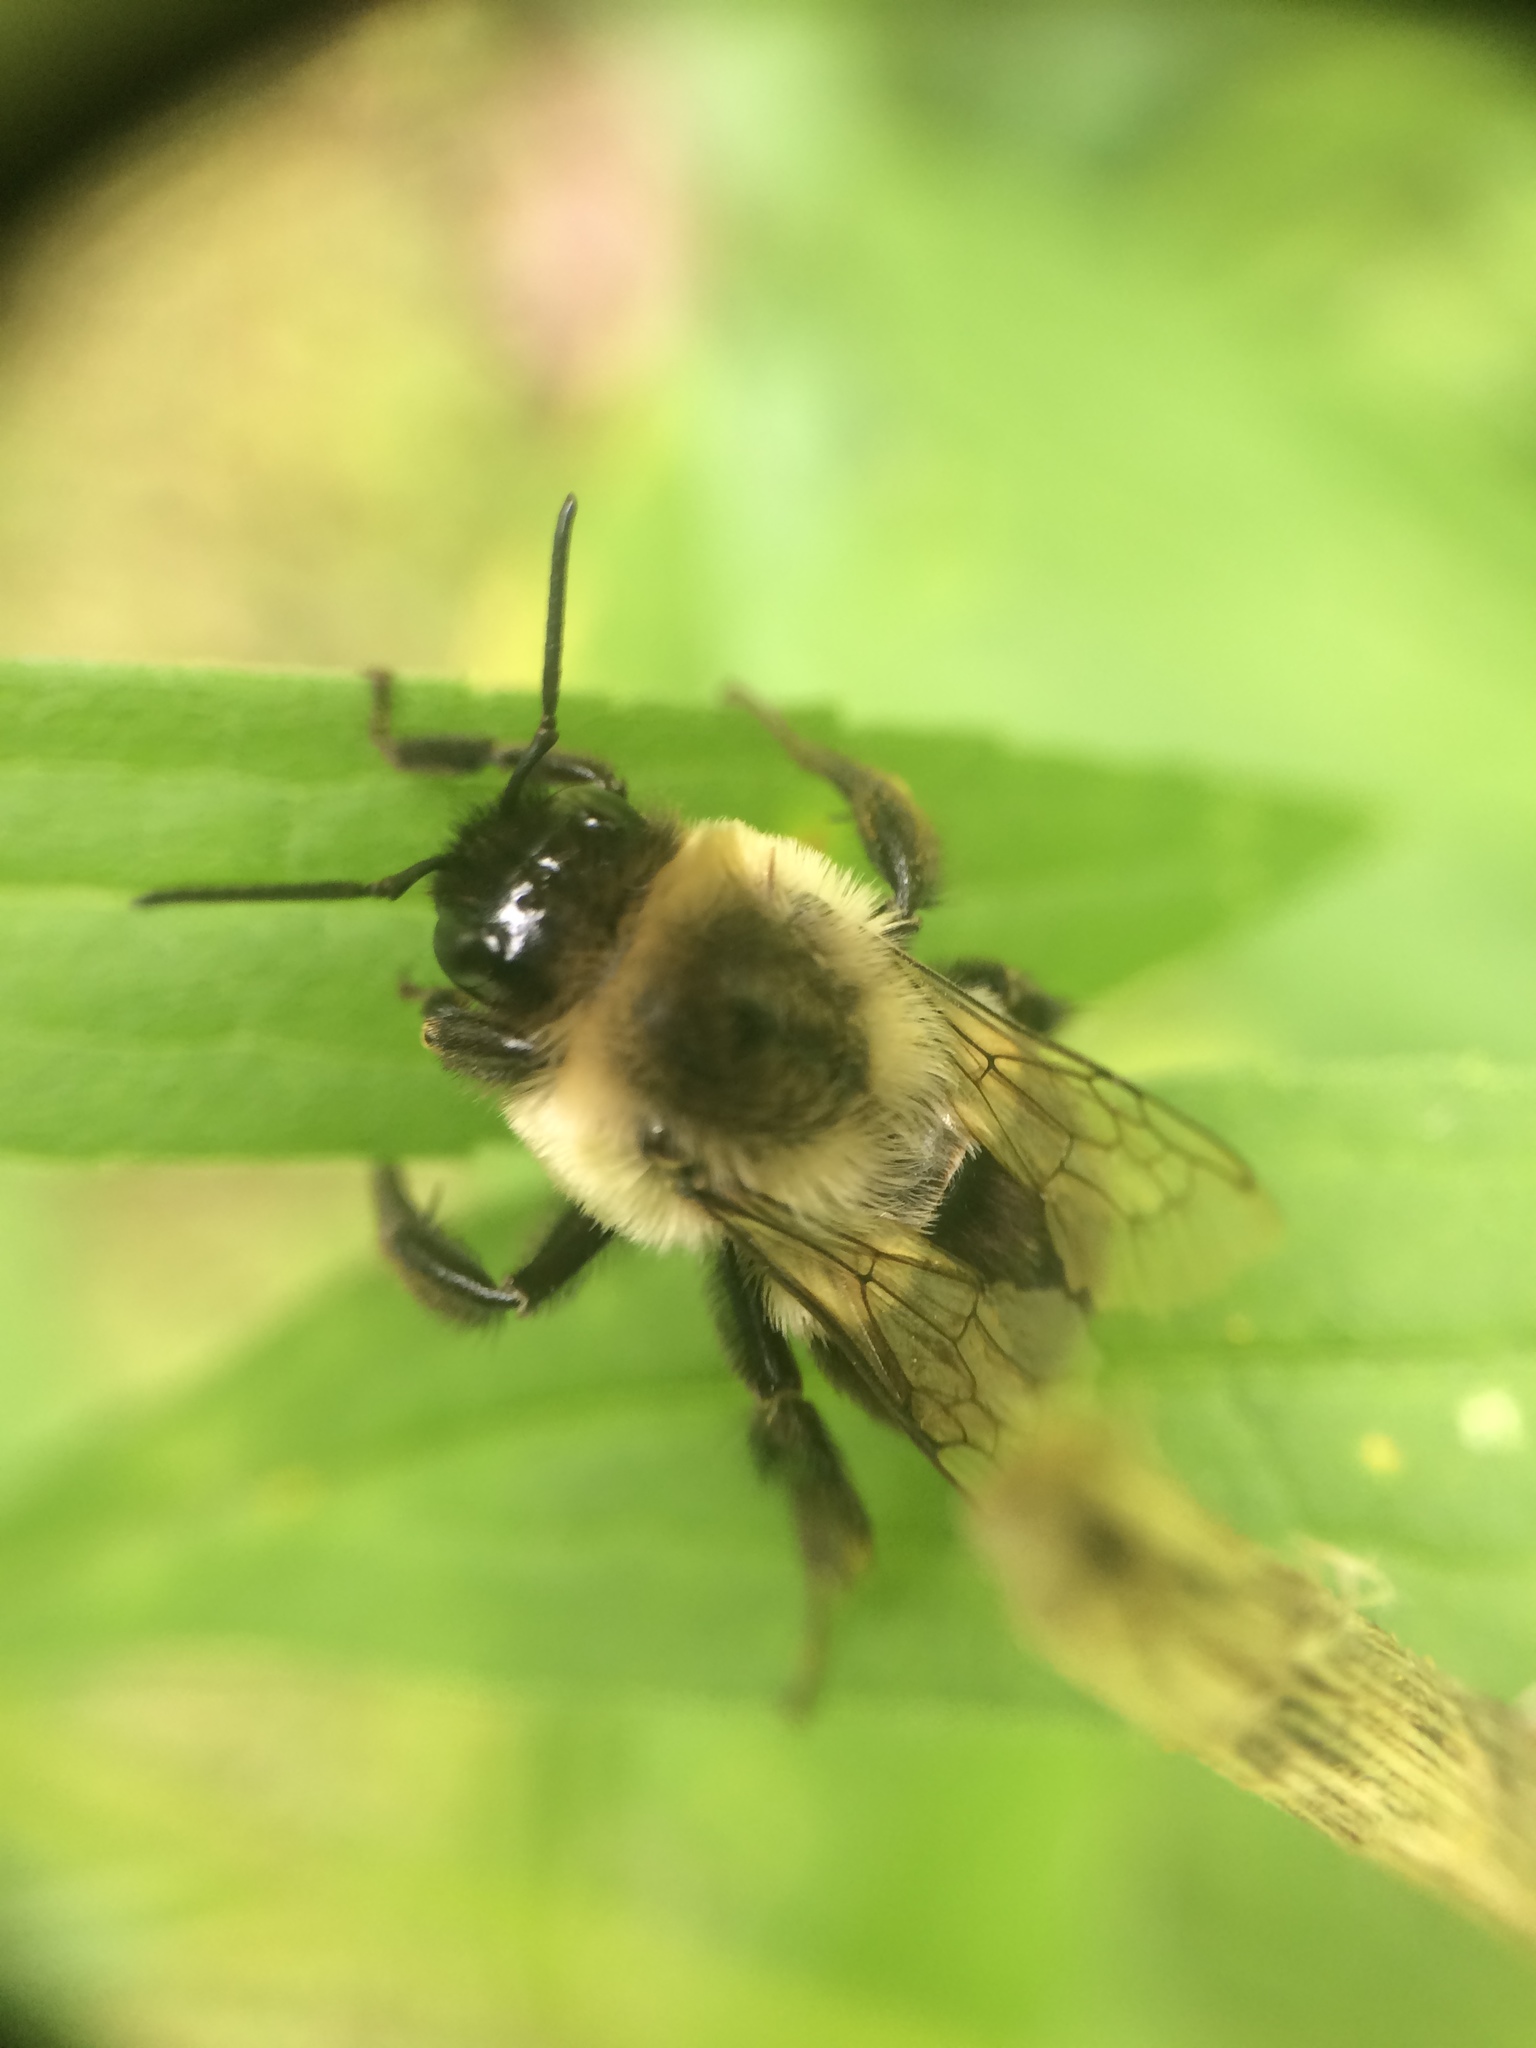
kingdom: Animalia
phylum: Arthropoda
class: Insecta
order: Hymenoptera
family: Apidae
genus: Bombus
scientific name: Bombus impatiens
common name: Common eastern bumble bee
